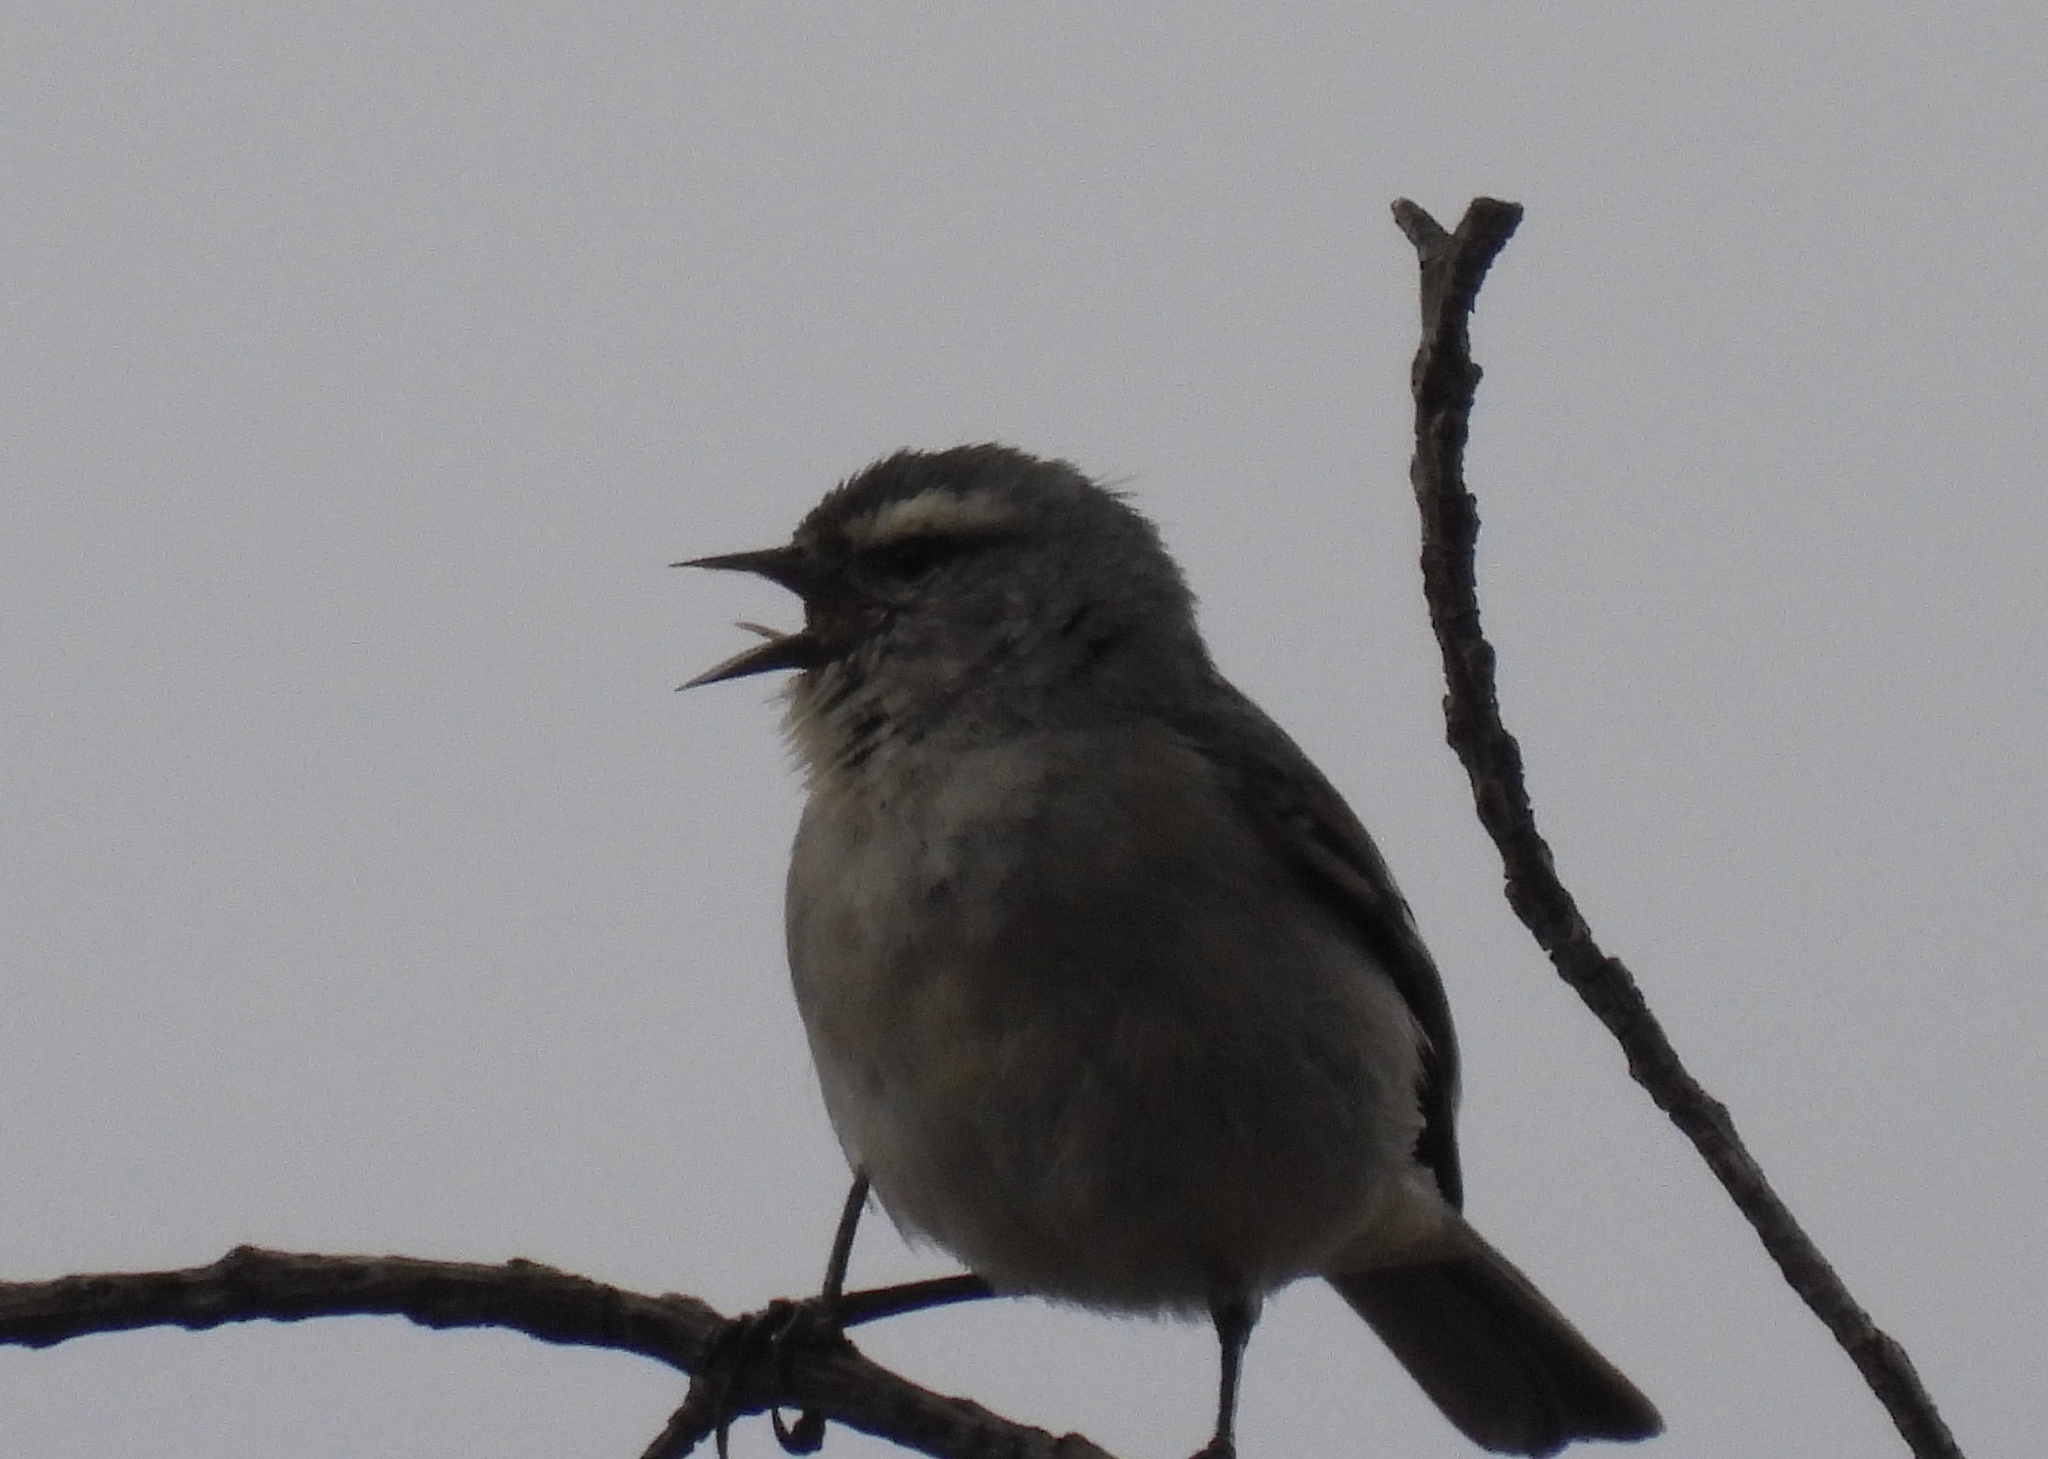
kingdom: Animalia
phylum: Chordata
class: Aves
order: Passeriformes
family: Thraupidae
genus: Conirostrum
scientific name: Conirostrum cinereum
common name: Cinereous conebill
